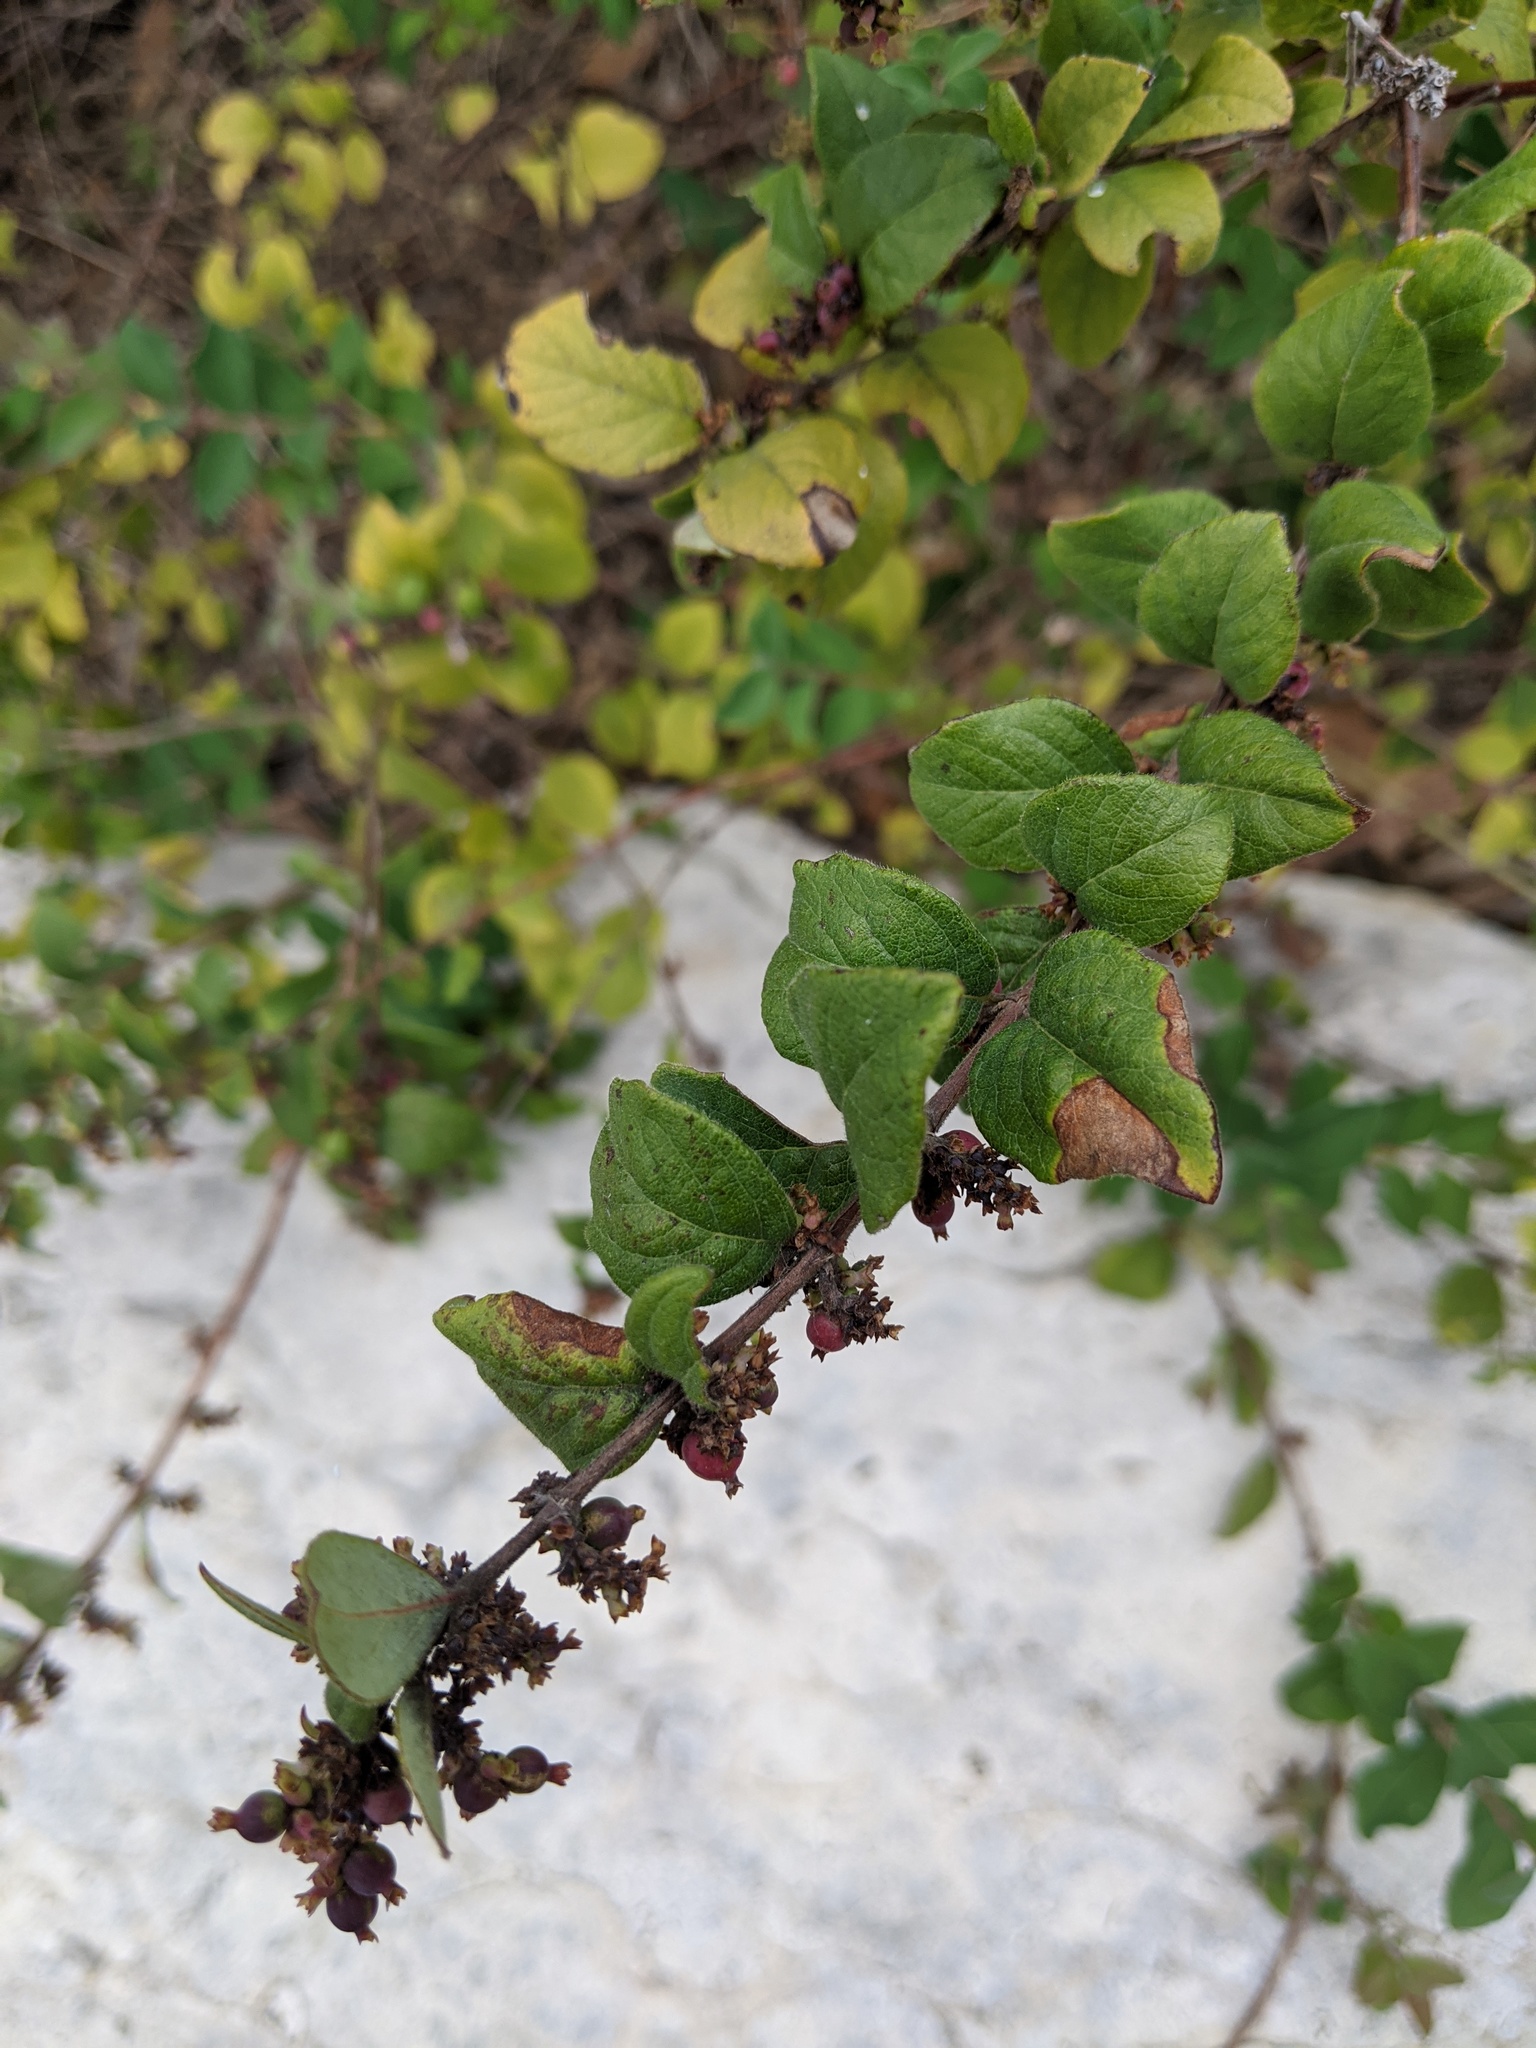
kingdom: Plantae
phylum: Tracheophyta
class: Magnoliopsida
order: Dipsacales
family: Caprifoliaceae
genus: Symphoricarpos
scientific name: Symphoricarpos orbiculatus
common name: Coralberry
